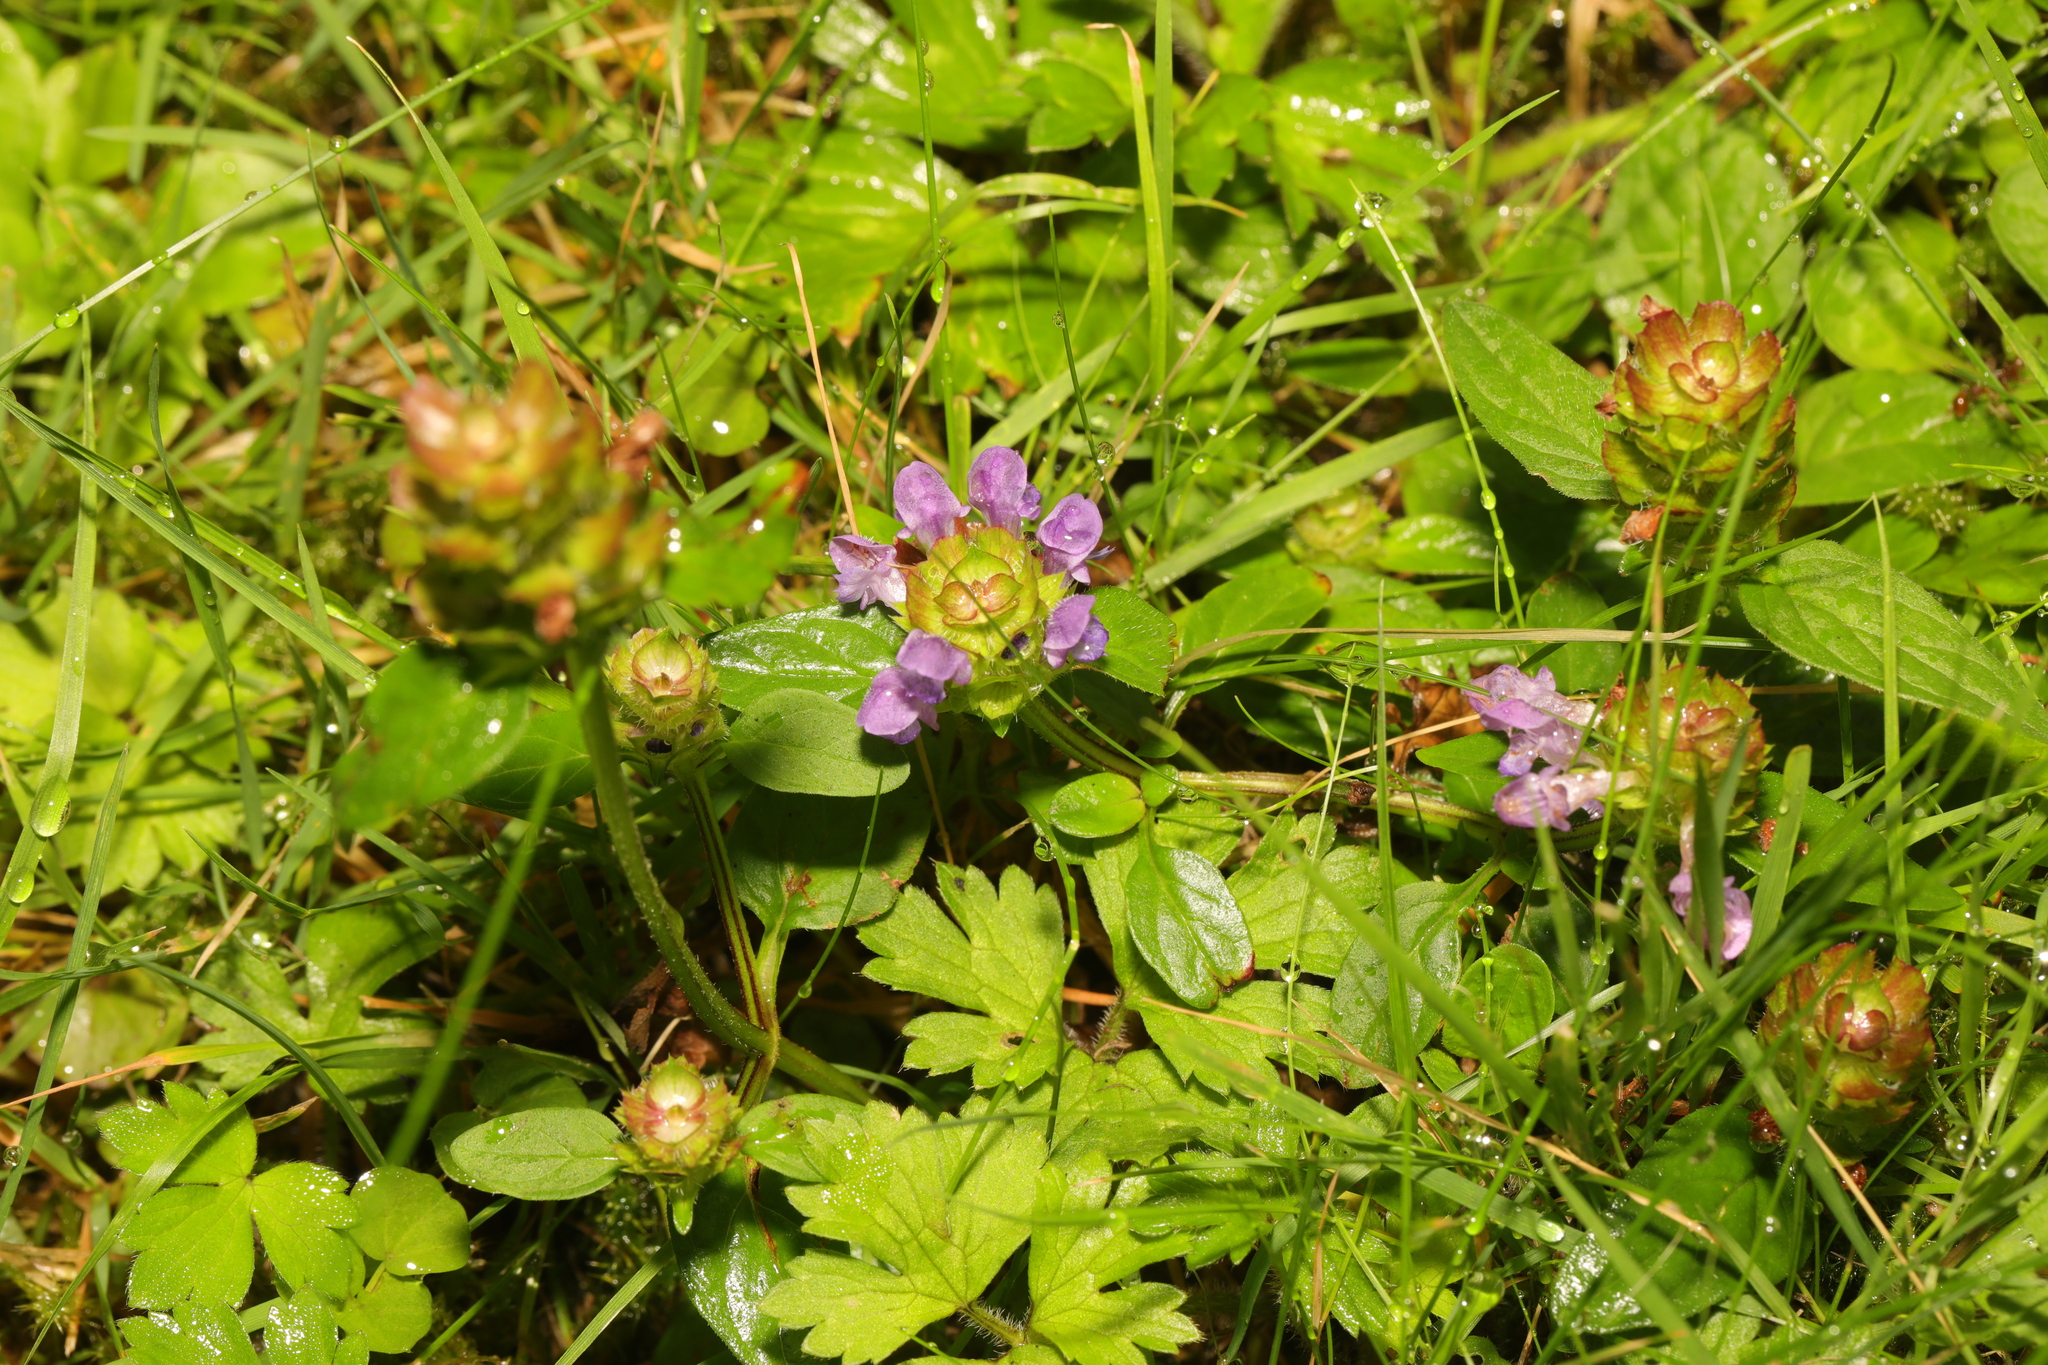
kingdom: Plantae
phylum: Tracheophyta
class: Magnoliopsida
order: Lamiales
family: Lamiaceae
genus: Prunella
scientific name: Prunella vulgaris
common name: Heal-all
